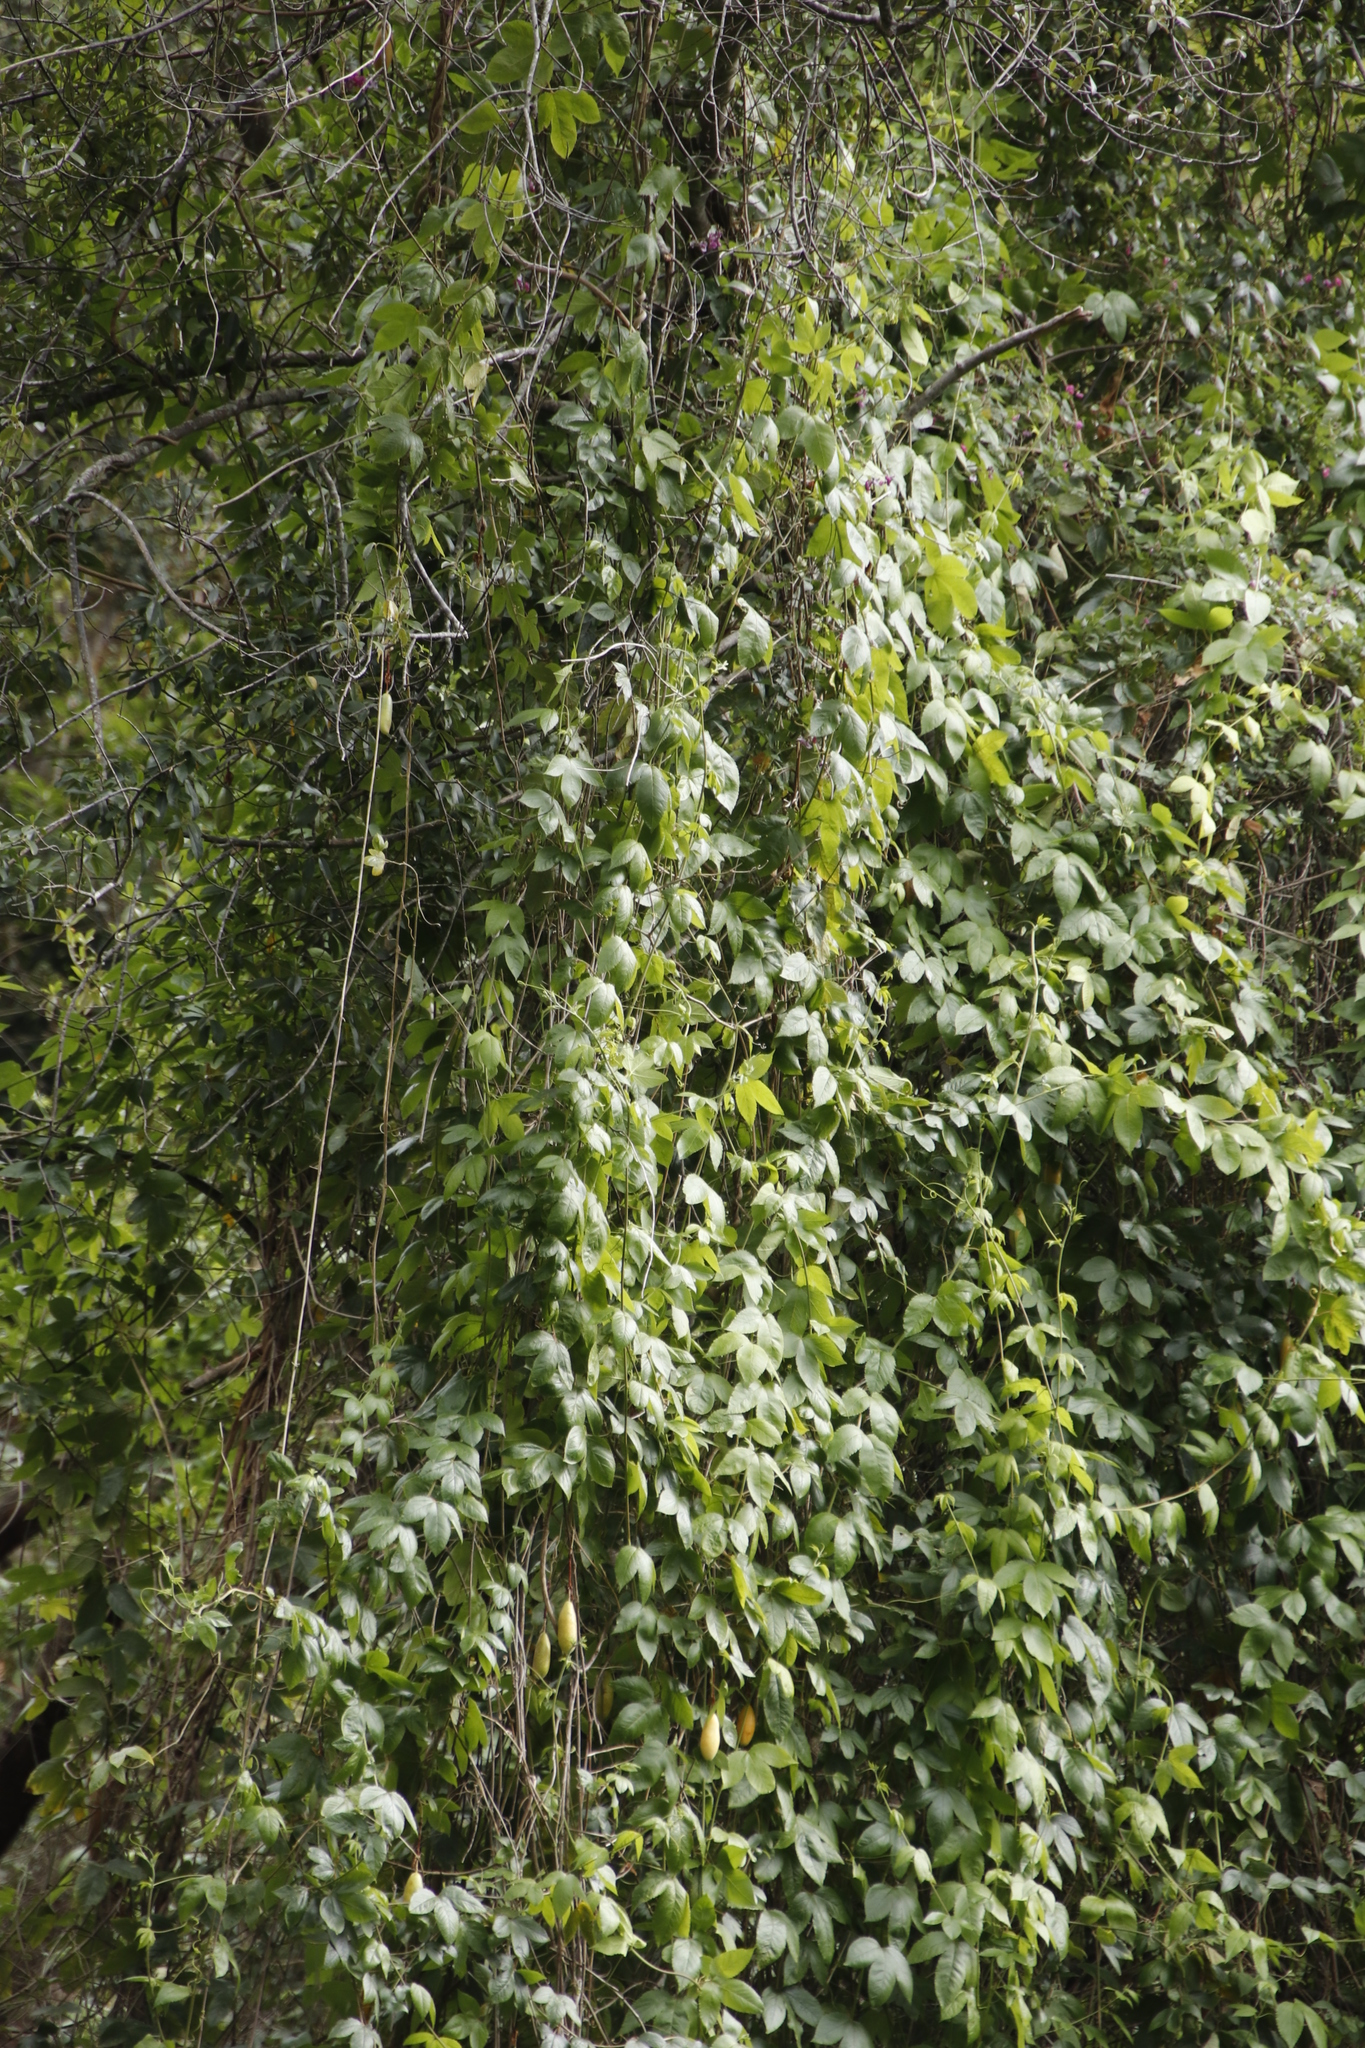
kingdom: Plantae
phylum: Tracheophyta
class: Magnoliopsida
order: Fabales
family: Fabaceae
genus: Dipogon
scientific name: Dipogon lignosus
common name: Okie bean
